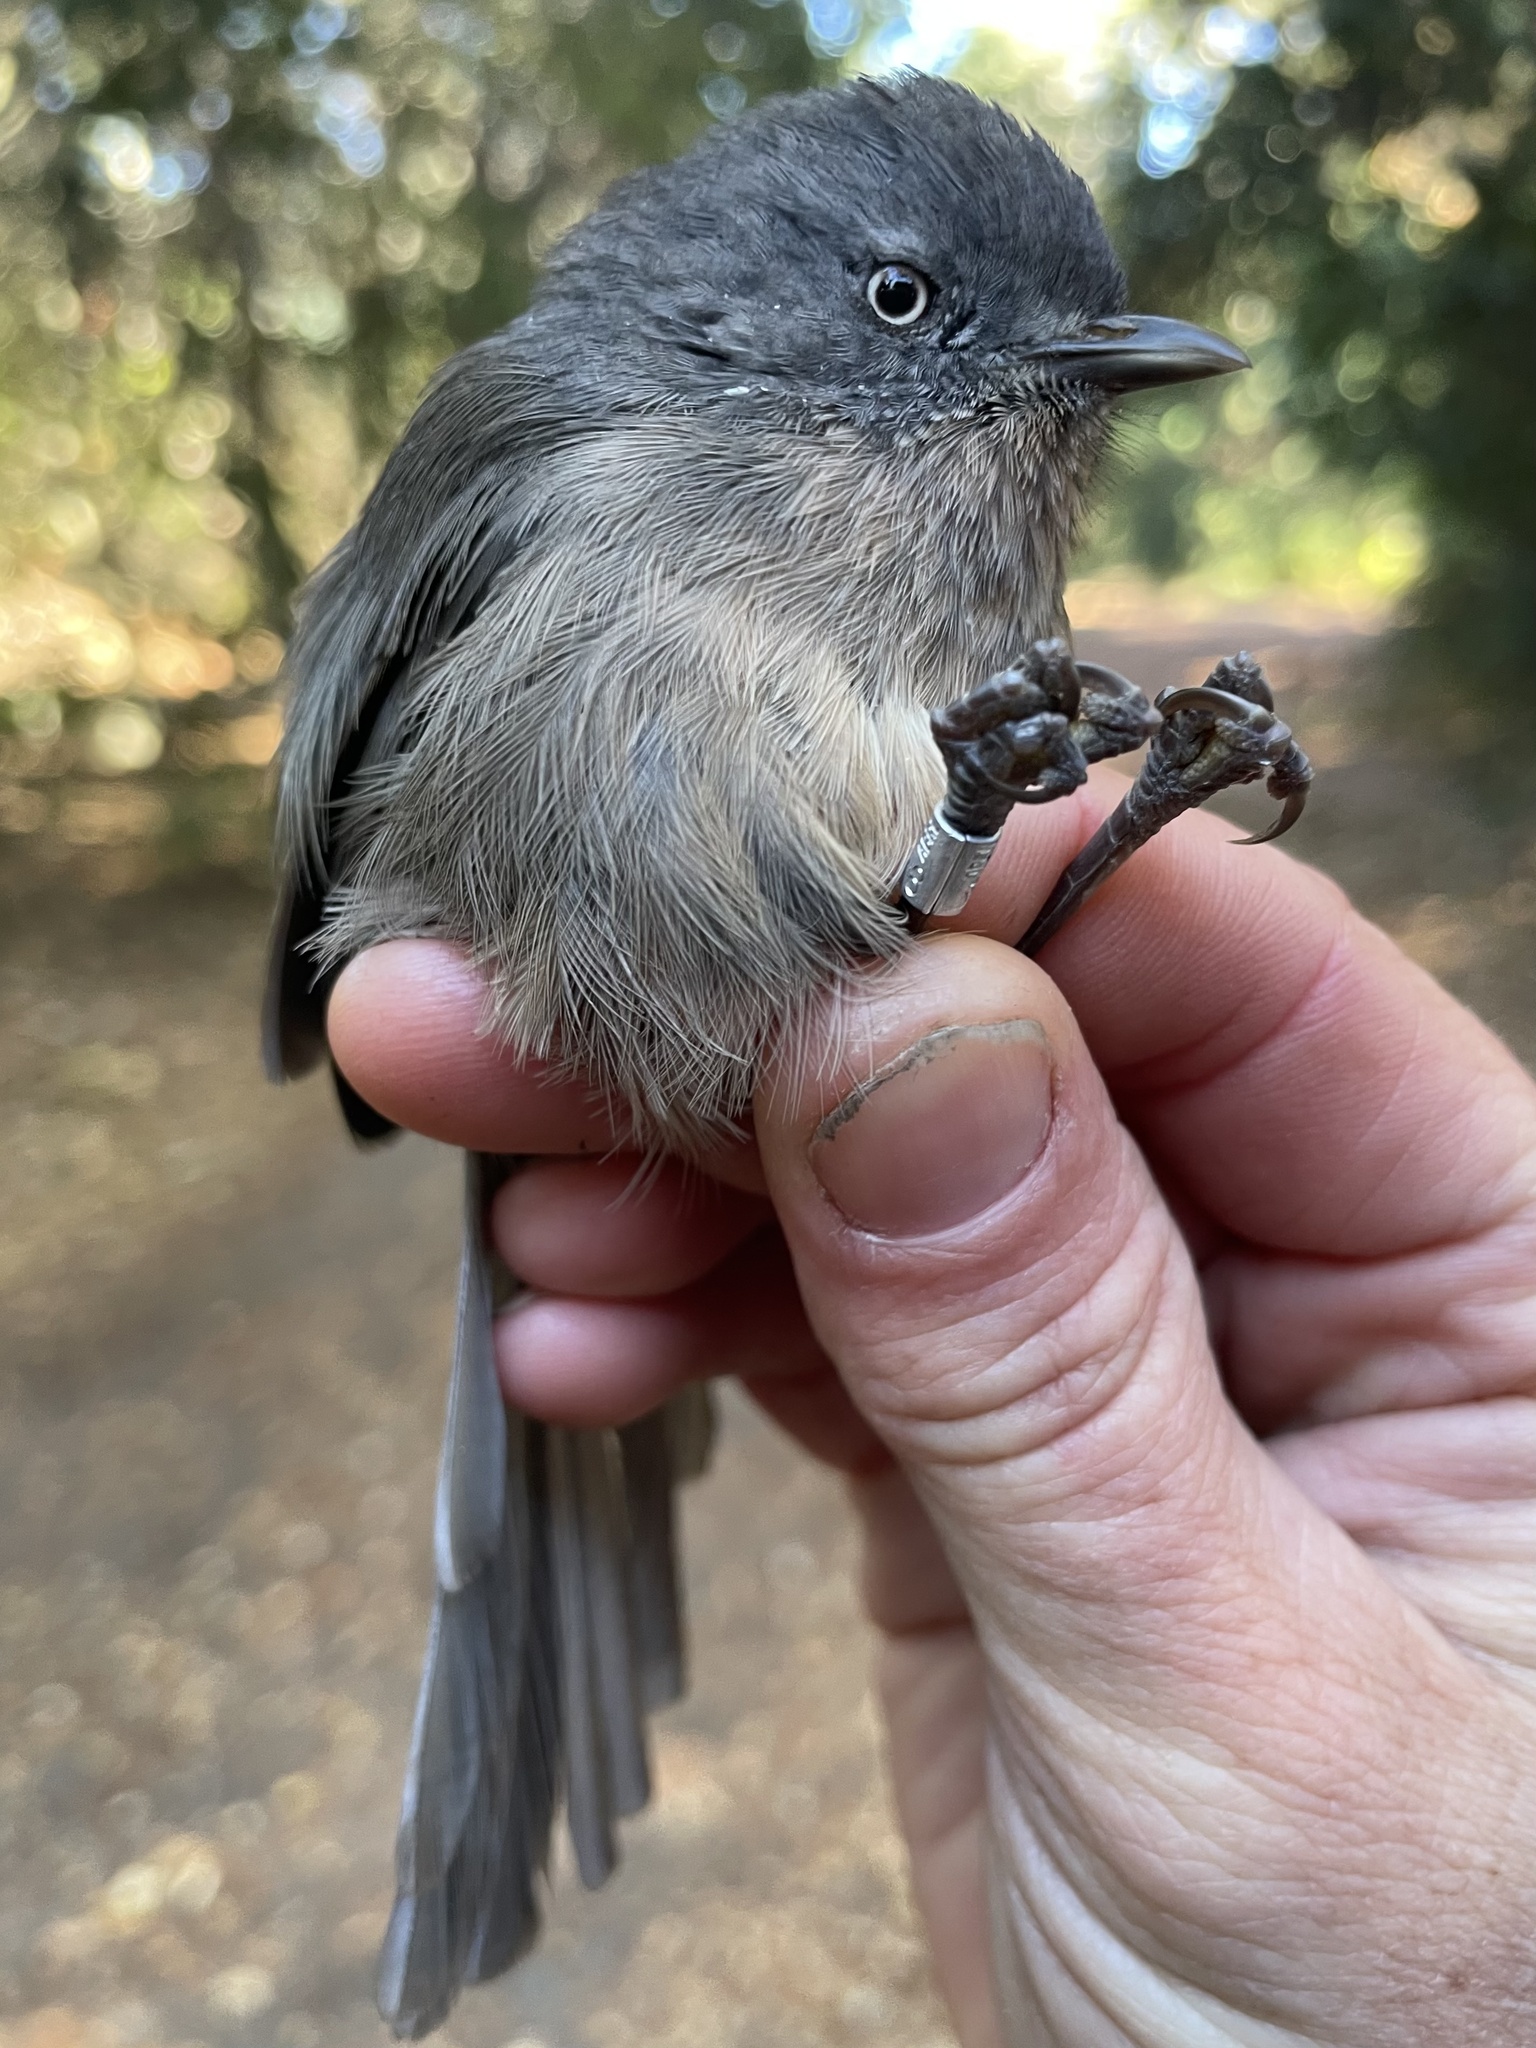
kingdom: Animalia
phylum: Chordata
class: Aves
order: Passeriformes
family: Sylviidae
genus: Chamaea
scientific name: Chamaea fasciata
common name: Wrentit
